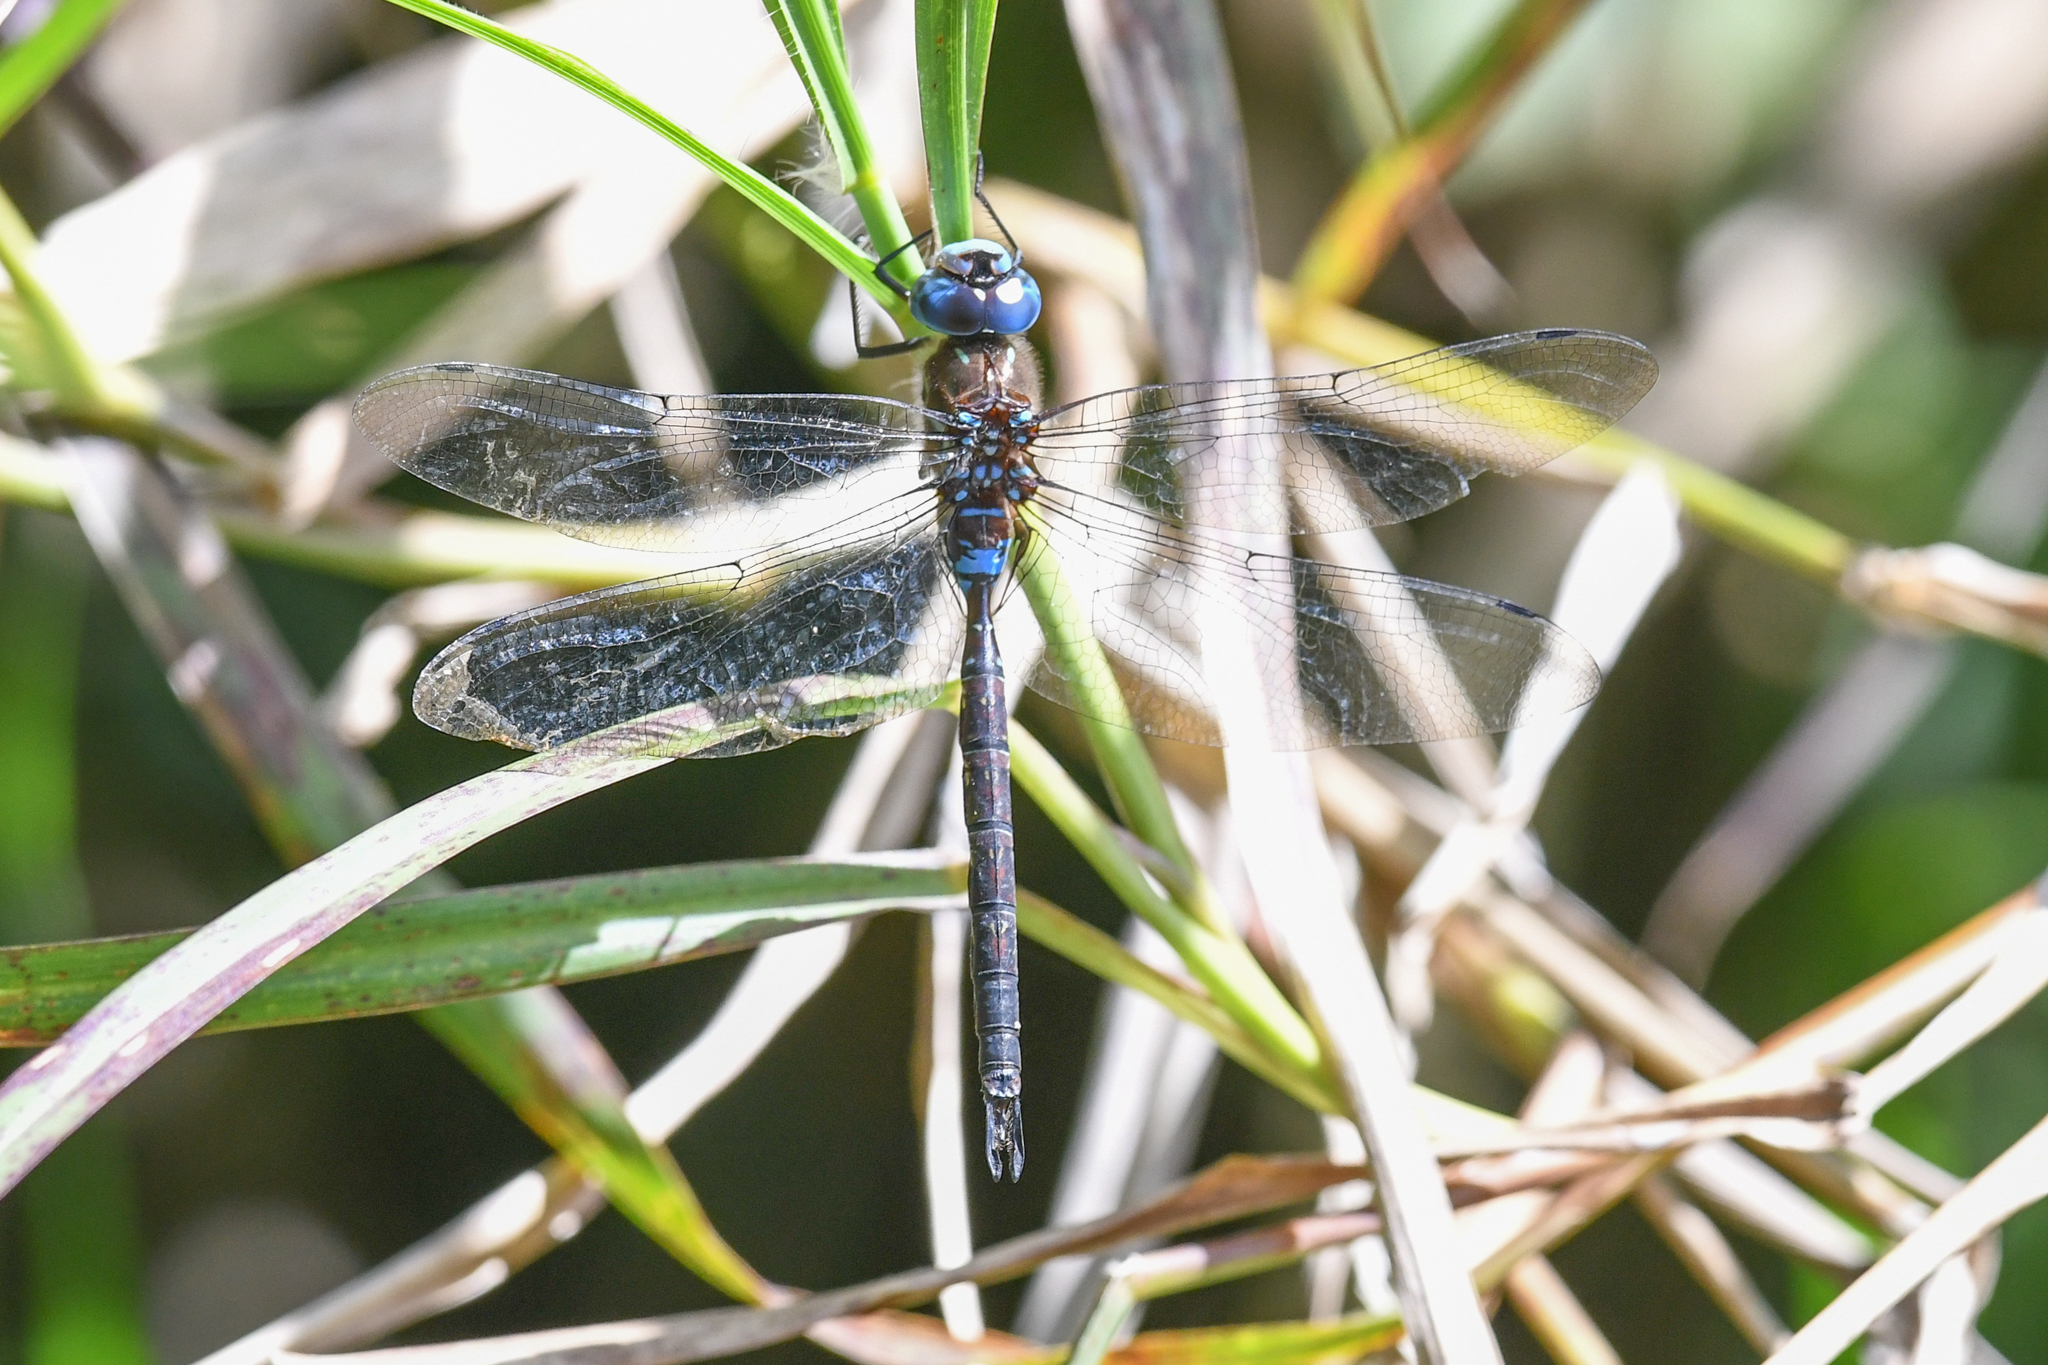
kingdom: Animalia
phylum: Arthropoda
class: Insecta
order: Odonata
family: Aeshnidae
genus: Rhionaeschna
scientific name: Rhionaeschna jalapensis
